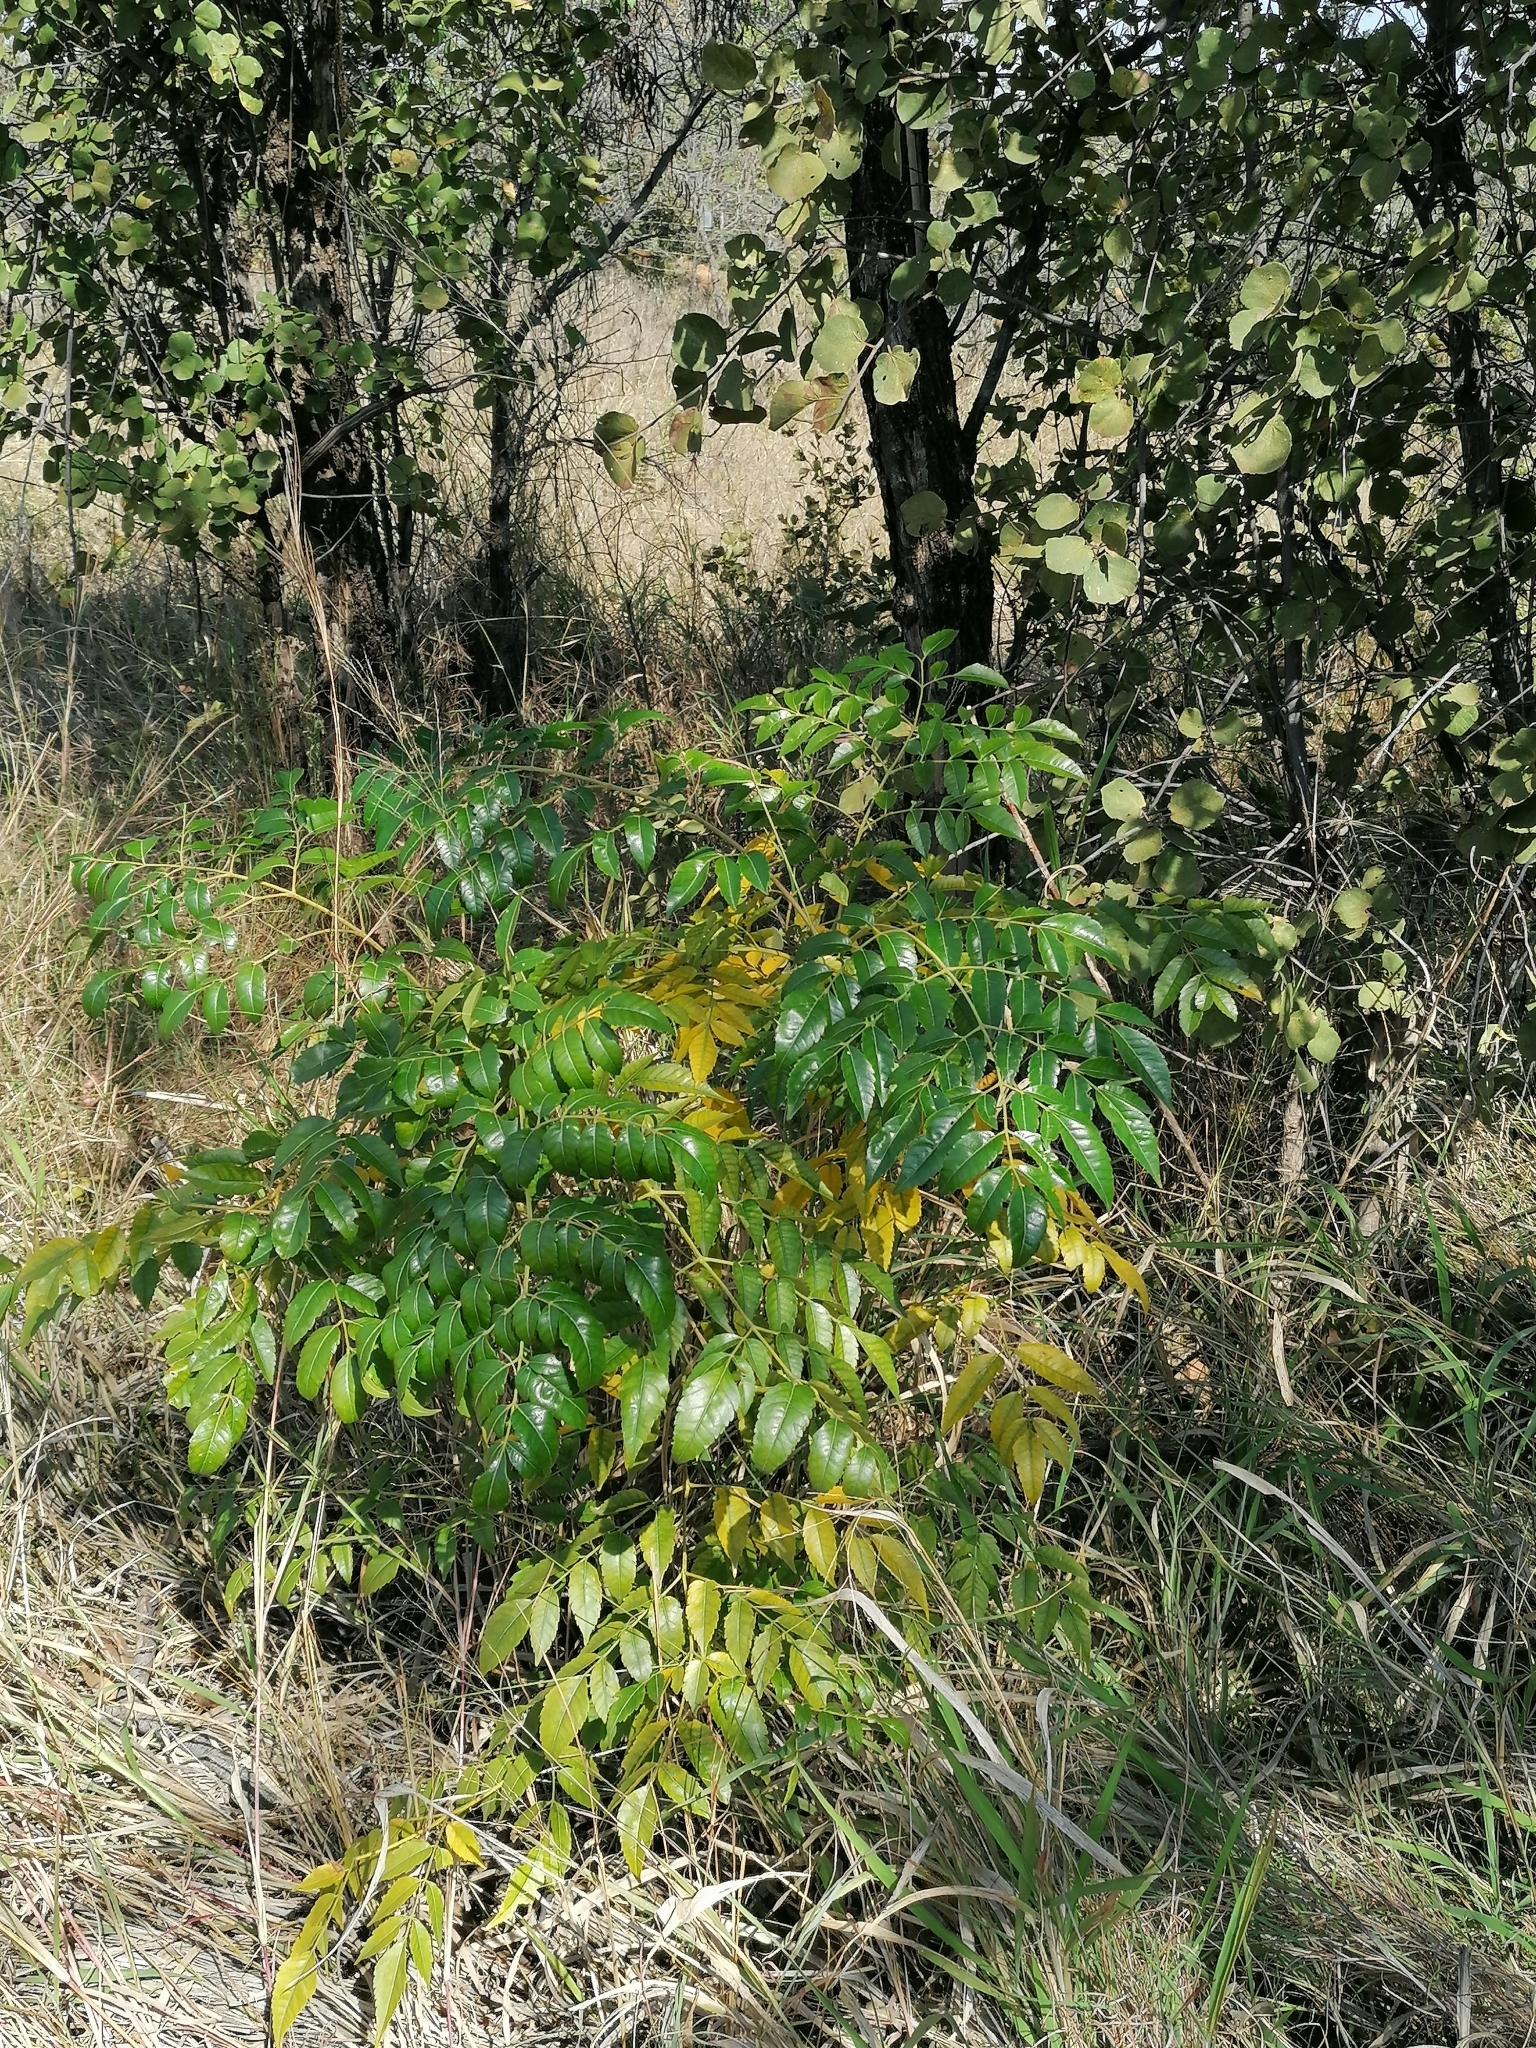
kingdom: Plantae
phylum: Tracheophyta
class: Magnoliopsida
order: Sapindales
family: Meliaceae
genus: Melia
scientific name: Melia azedarach
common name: Chinaberrytree
